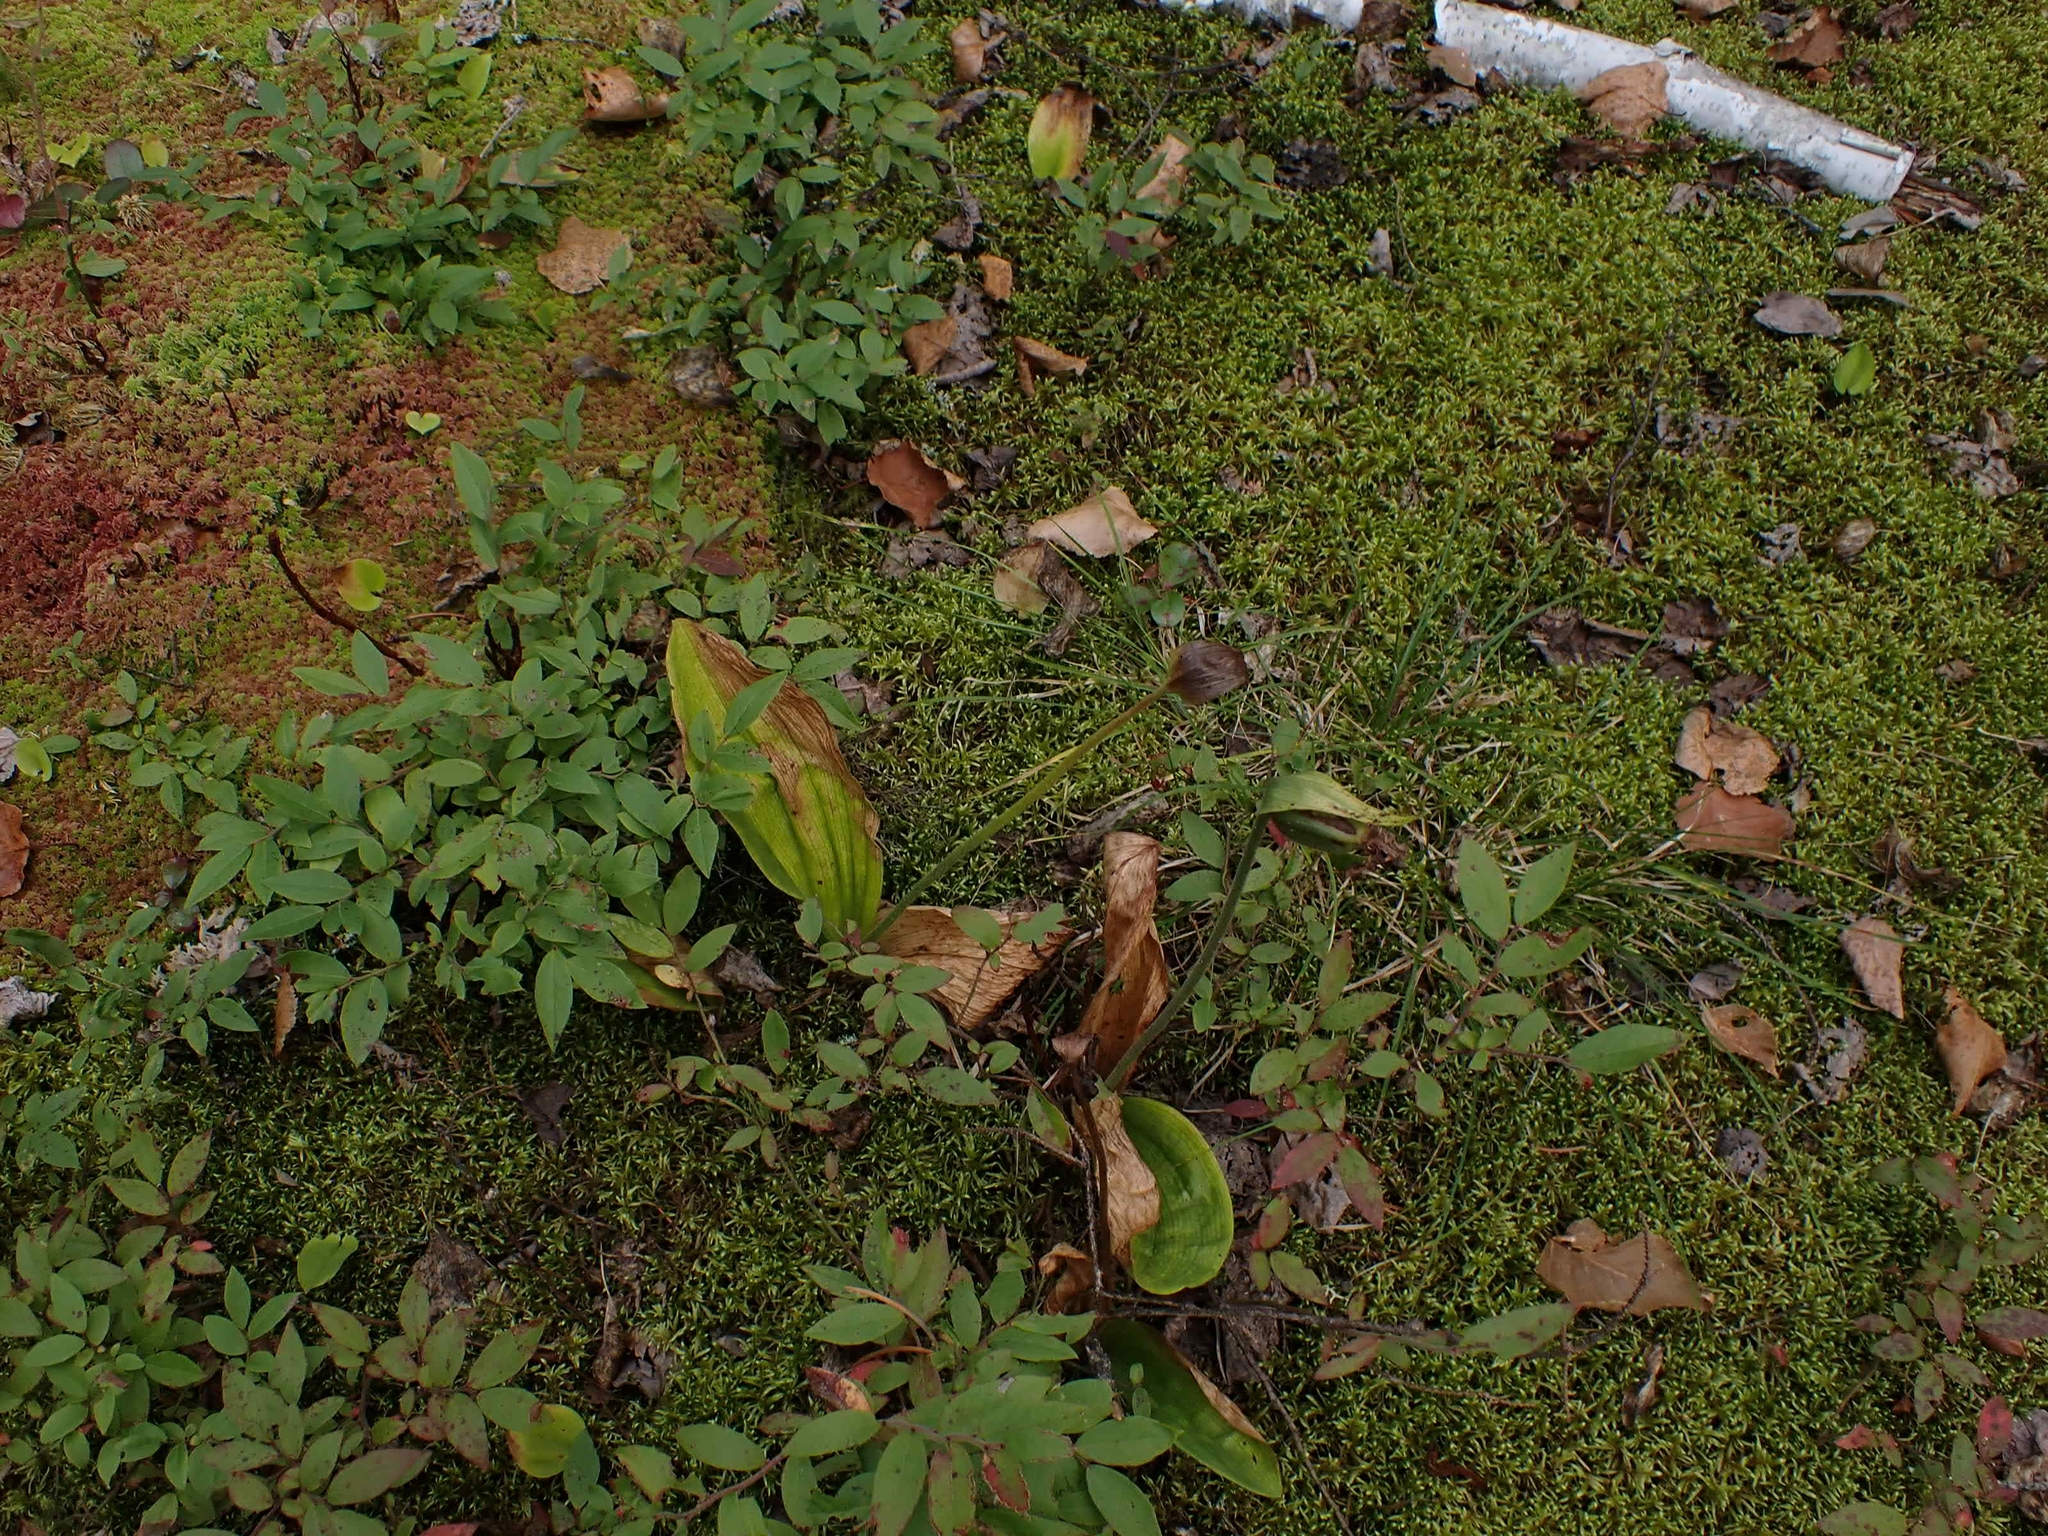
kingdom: Plantae
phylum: Tracheophyta
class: Liliopsida
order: Asparagales
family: Orchidaceae
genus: Cypripedium
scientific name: Cypripedium acaule
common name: Pink lady's-slipper
